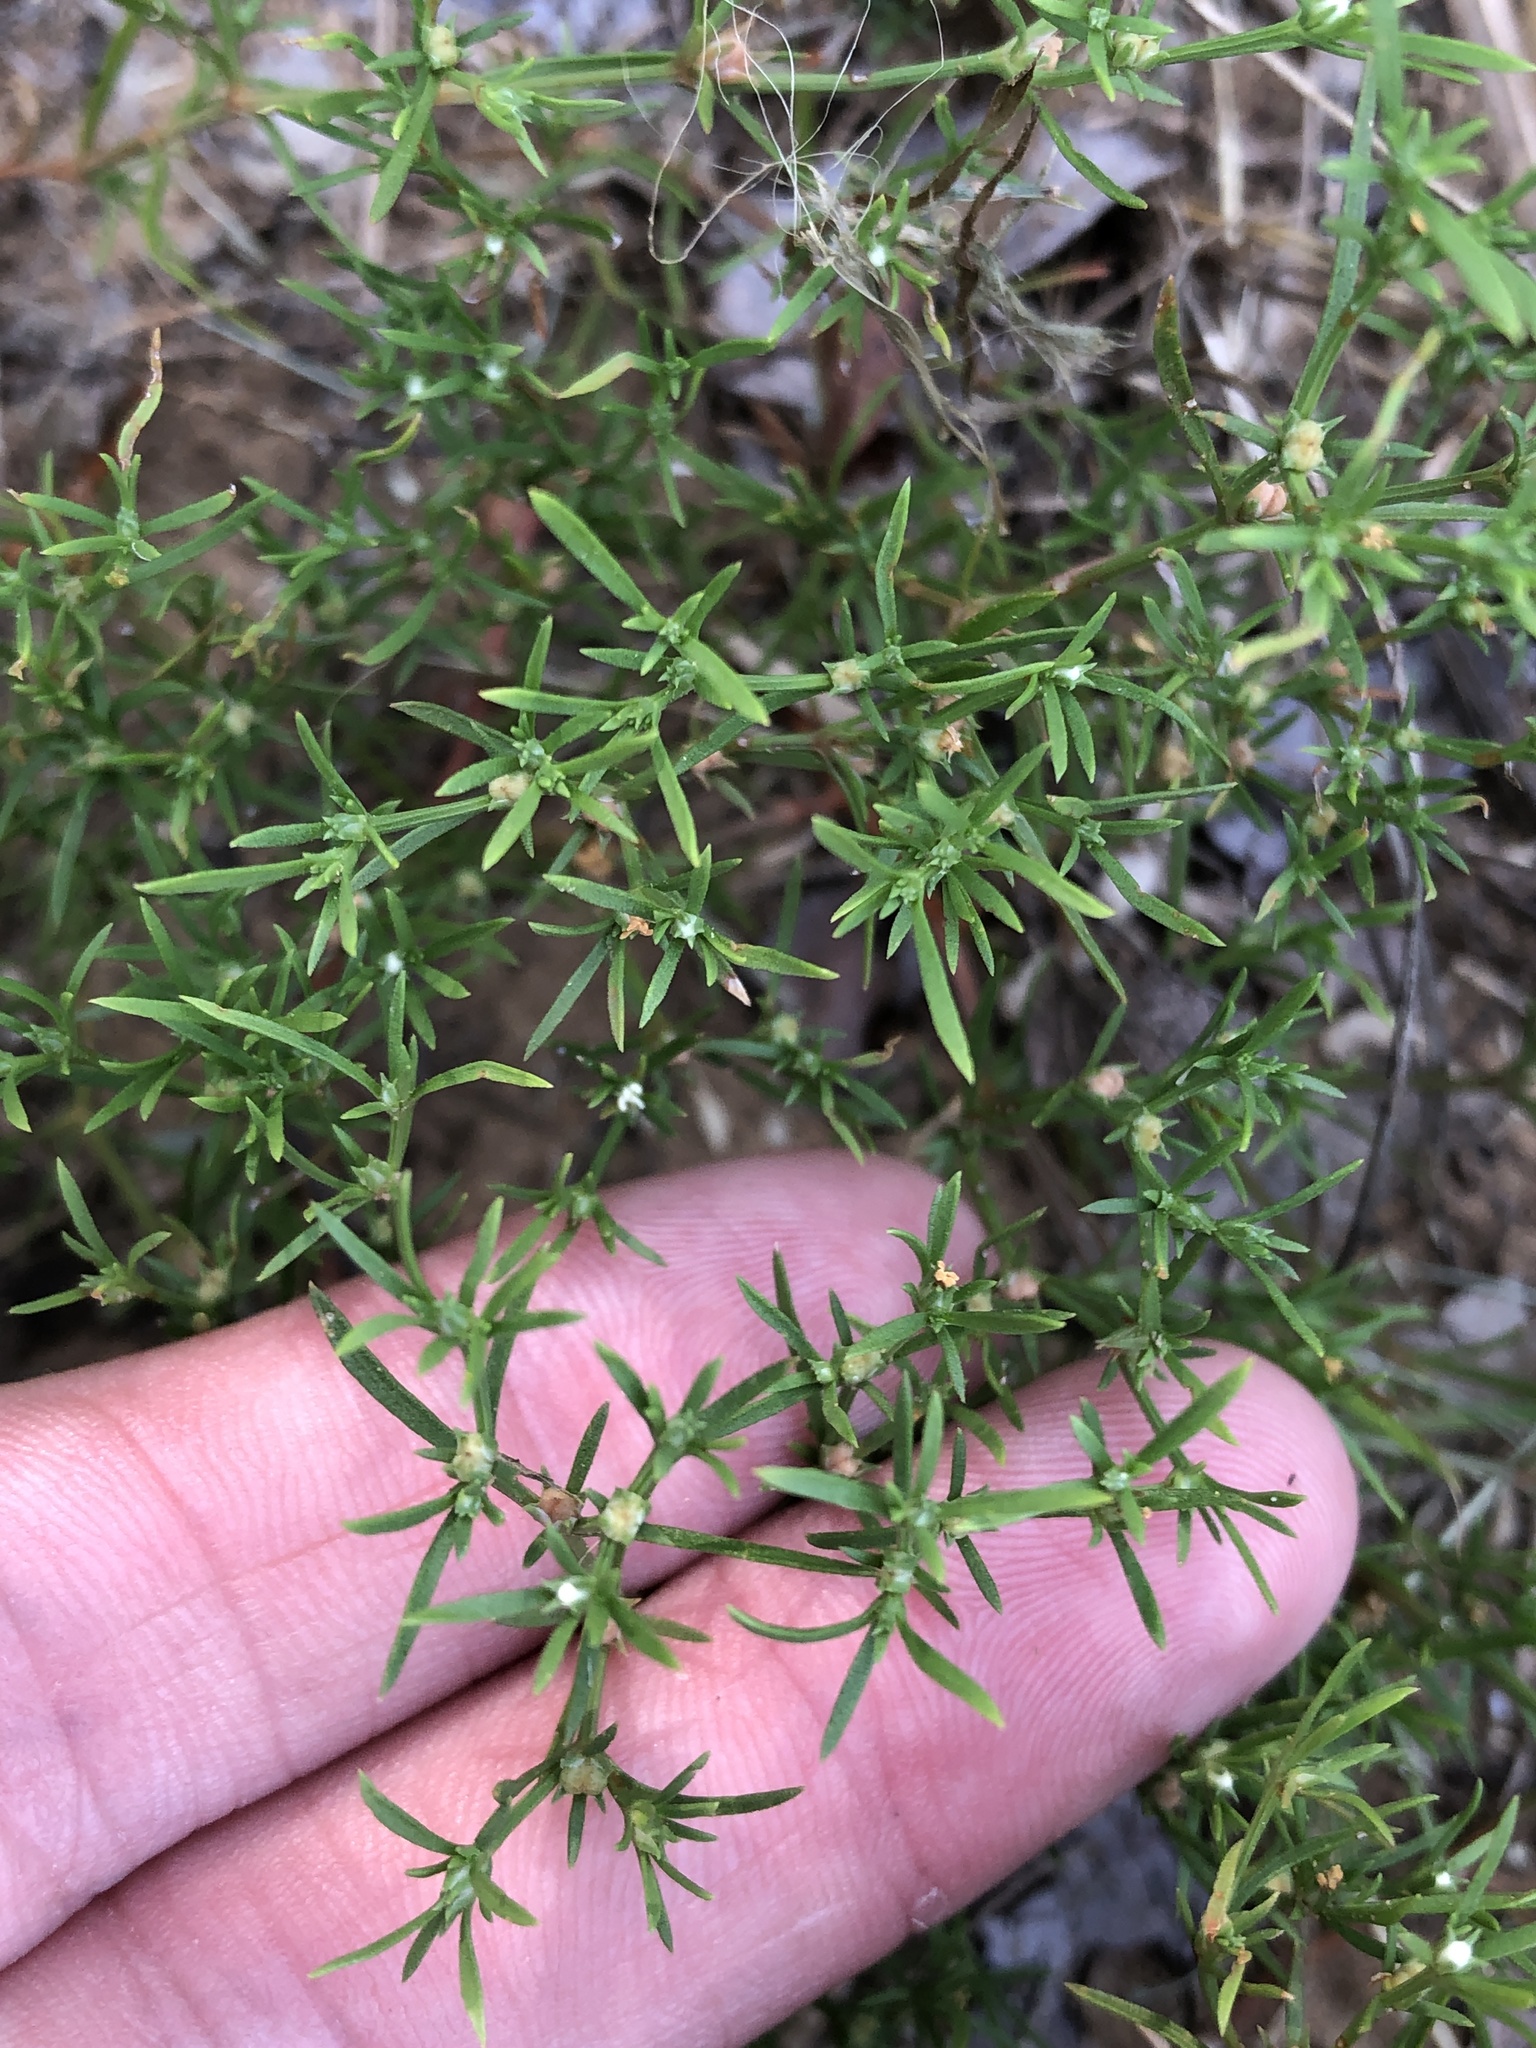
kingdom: Plantae
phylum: Tracheophyta
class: Magnoliopsida
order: Lamiales
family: Tetrachondraceae
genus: Polypremum
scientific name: Polypremum procumbens
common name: Juniper-leaf
